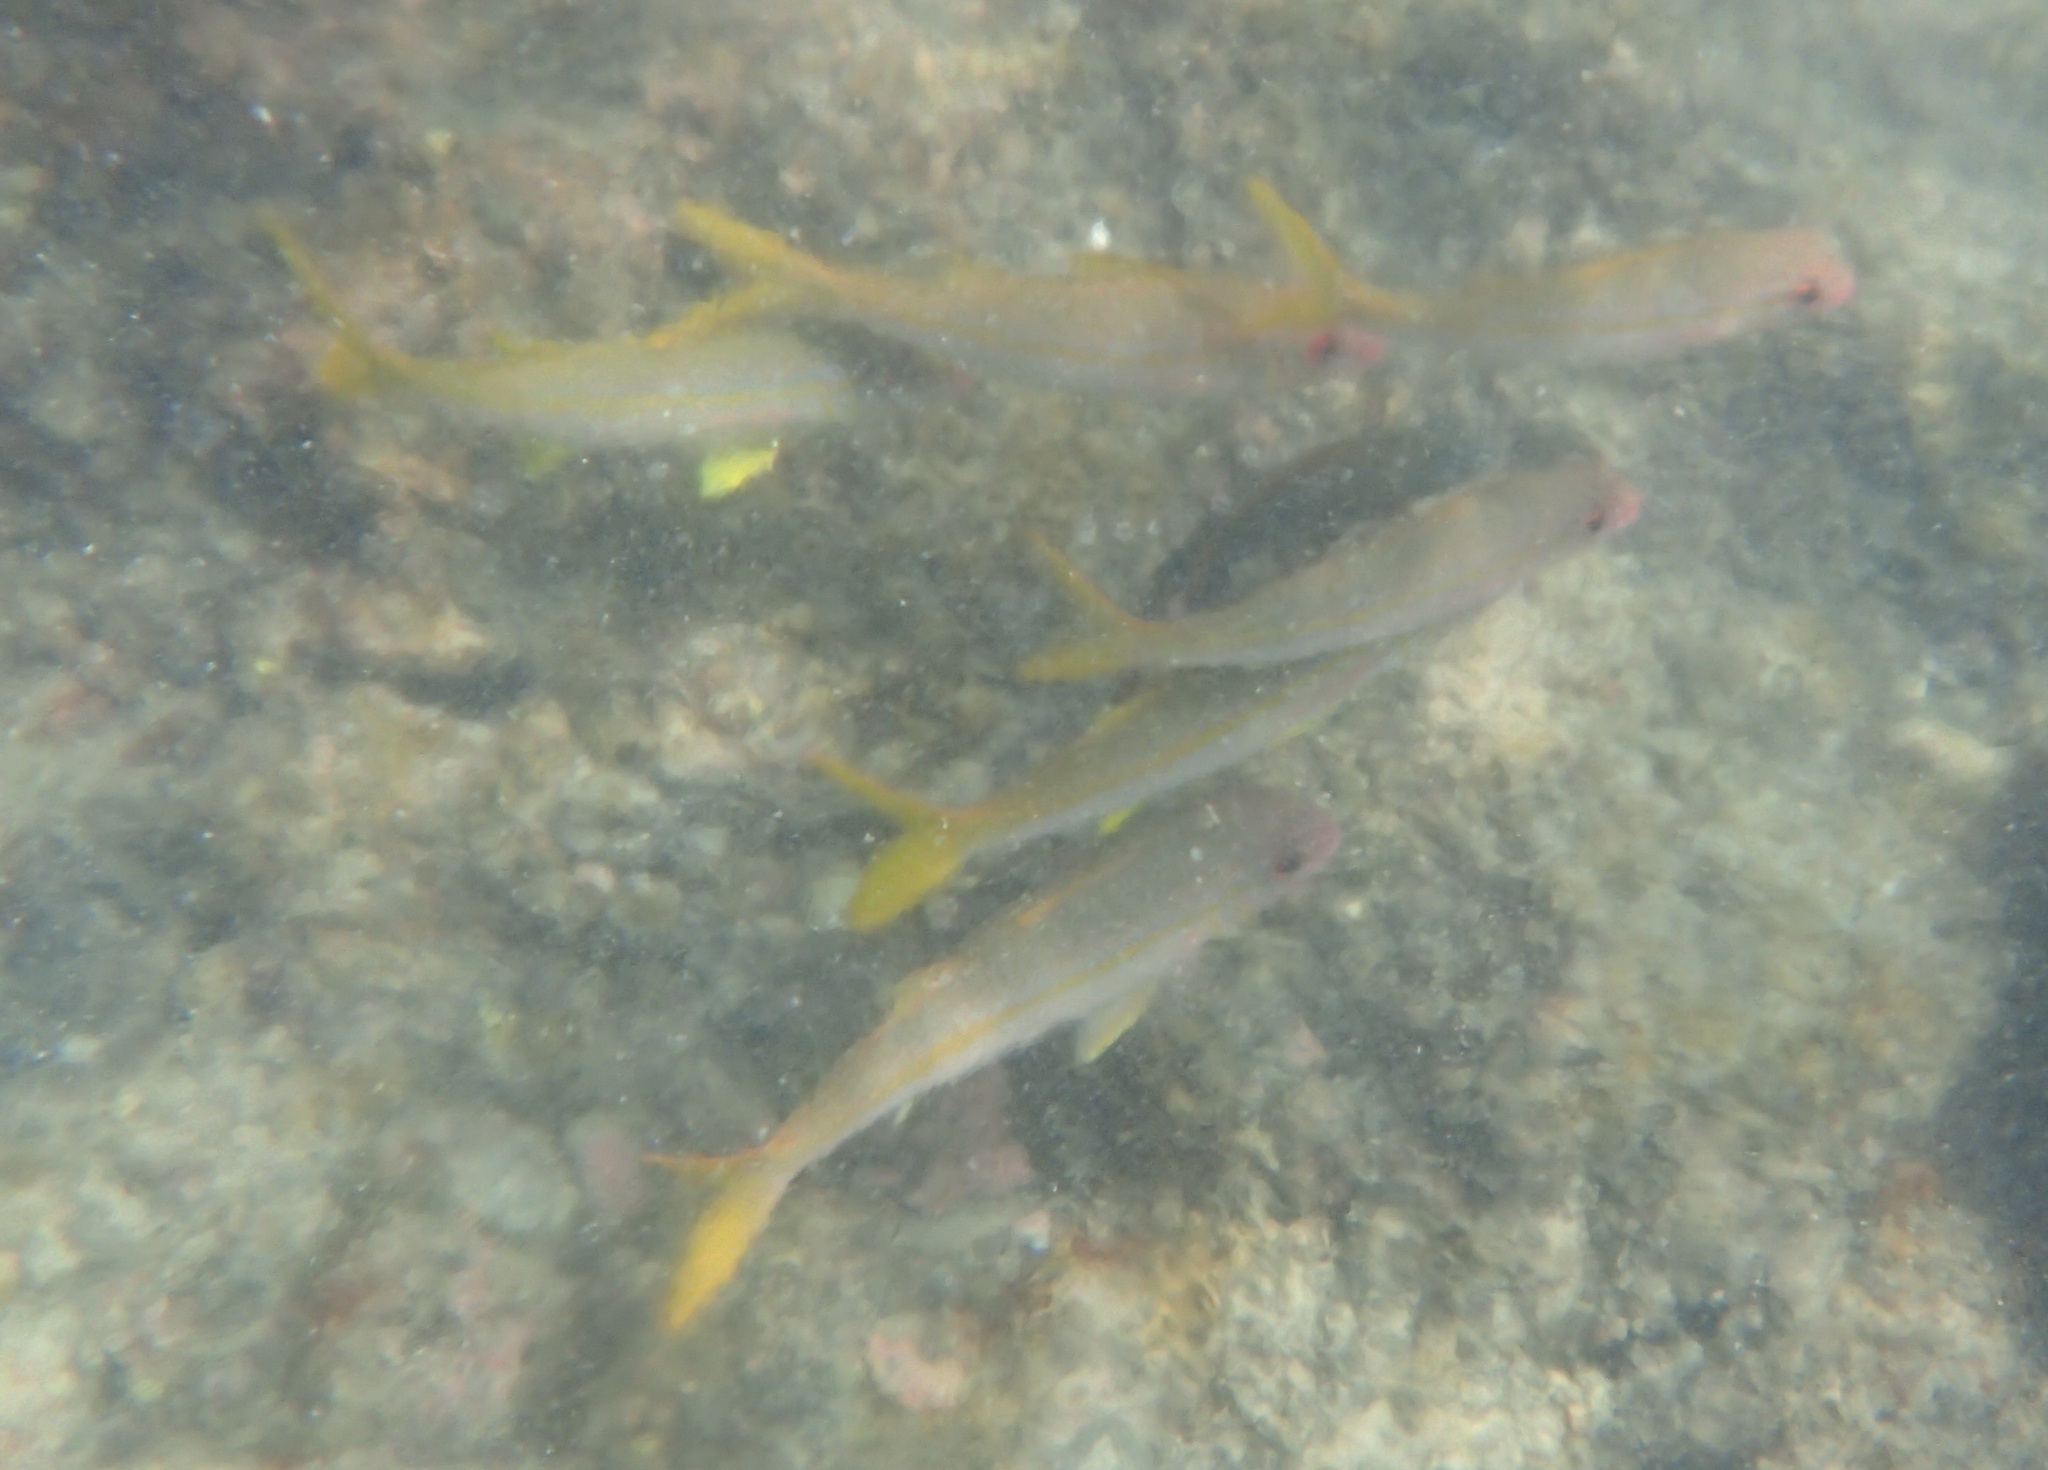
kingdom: Animalia
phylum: Chordata
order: Perciformes
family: Mullidae
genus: Mulloidichthys
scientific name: Mulloidichthys vanicolensis
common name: Yellowfin goatfish
